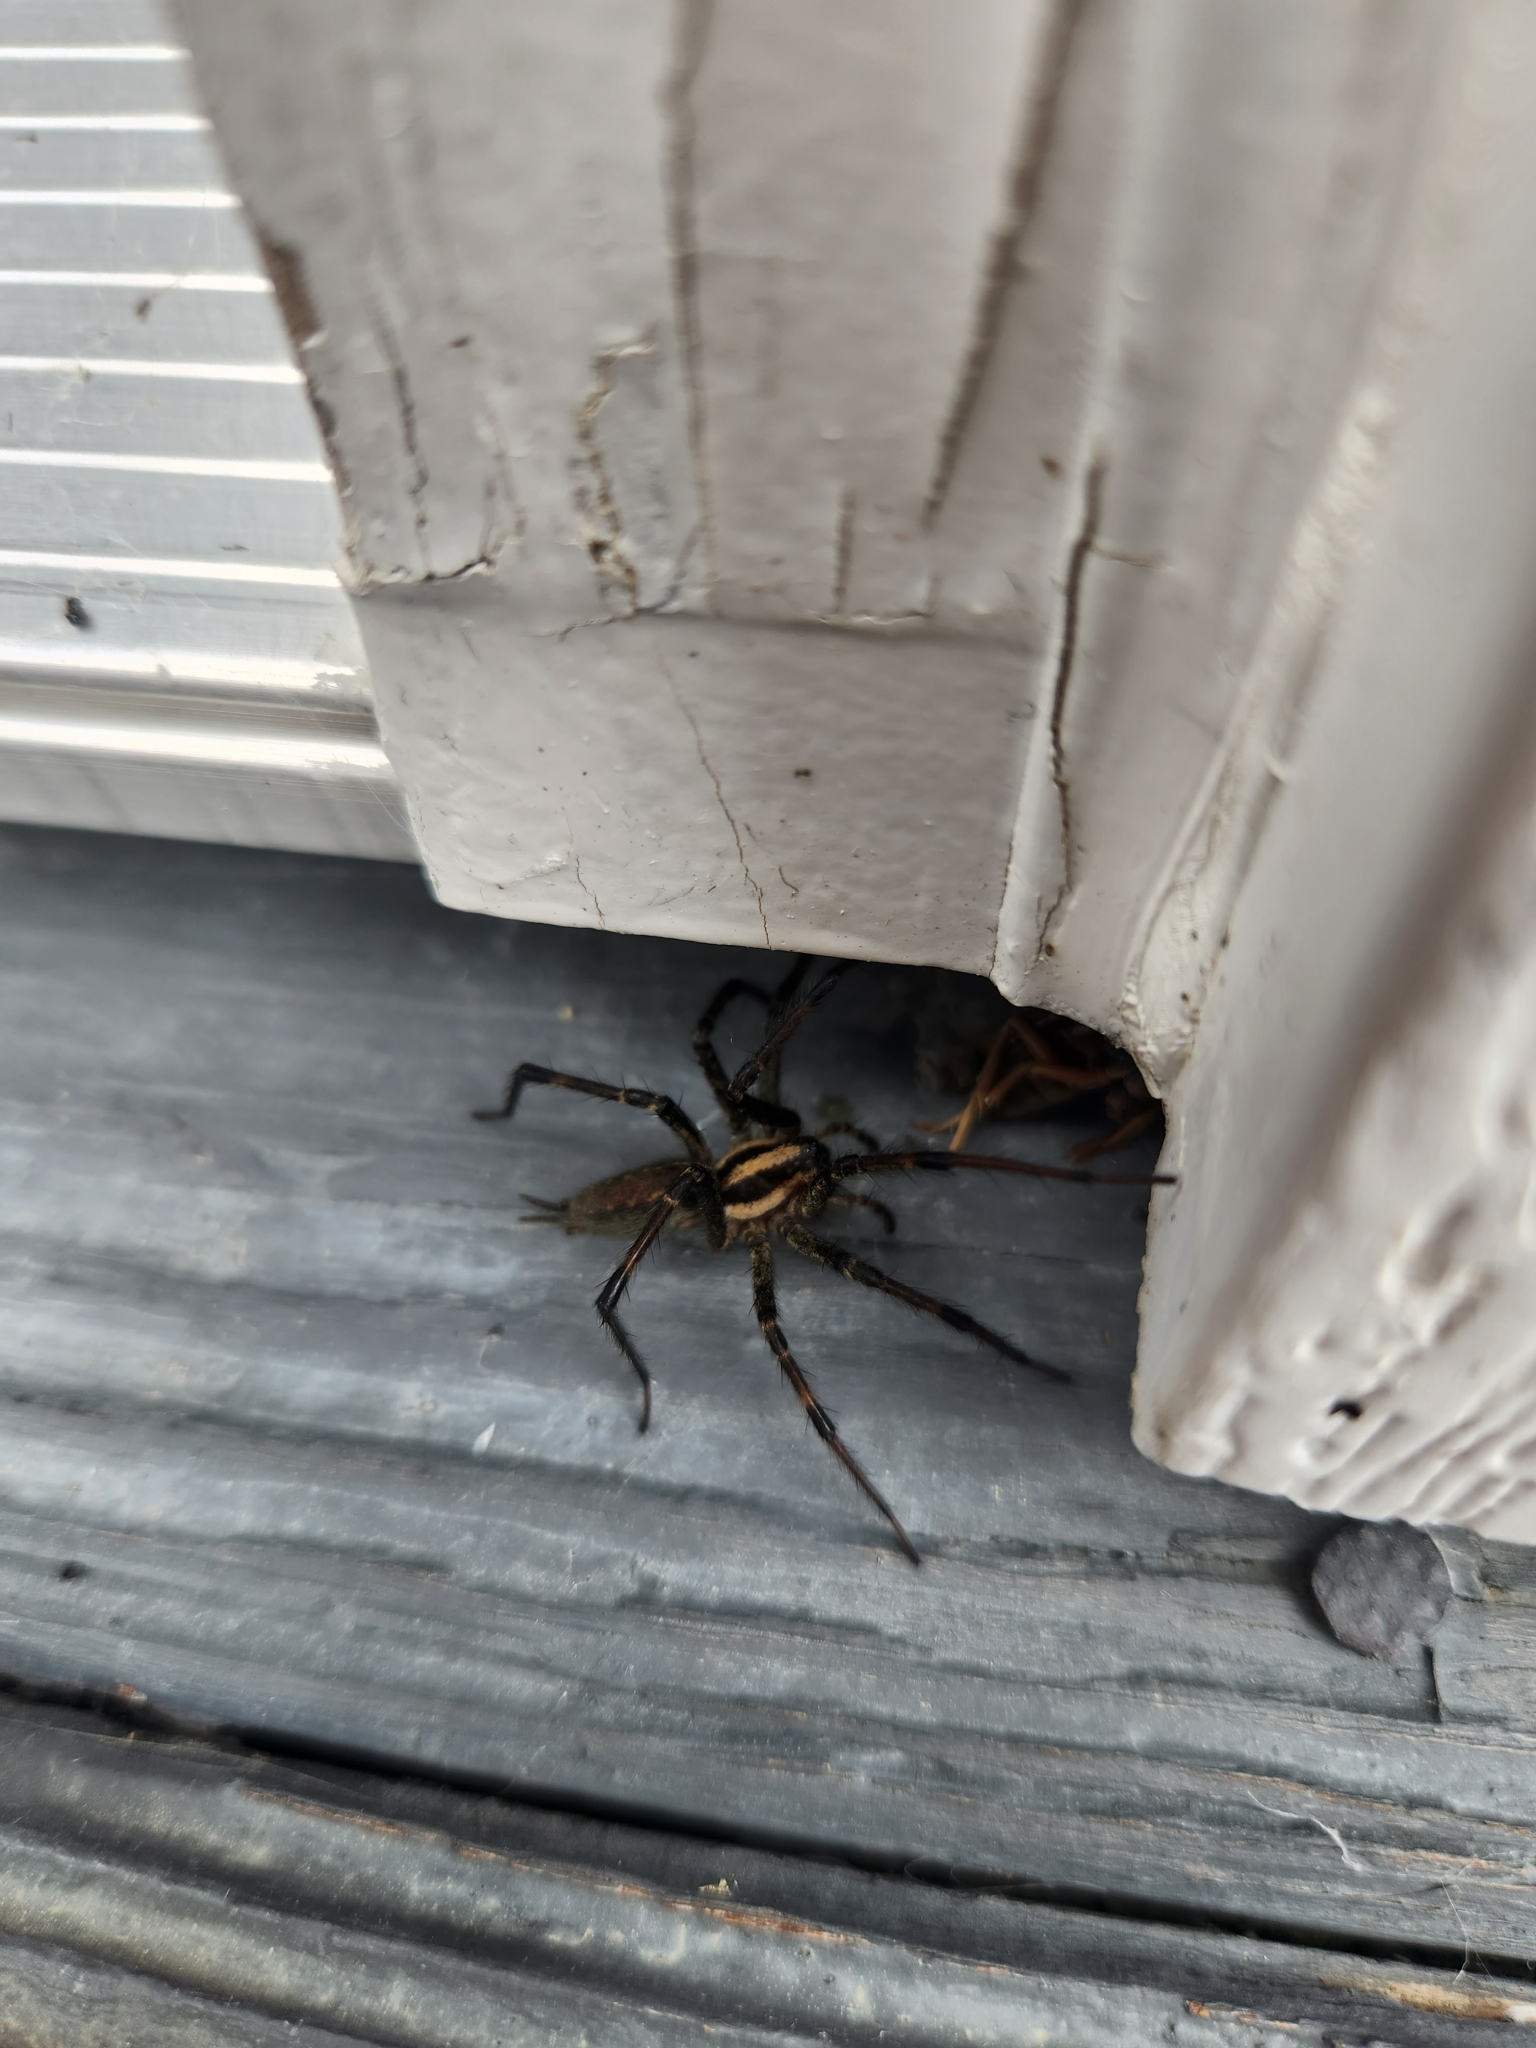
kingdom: Animalia
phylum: Arthropoda
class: Arachnida
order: Araneae
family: Agelenidae
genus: Agelenopsis
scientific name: Agelenopsis
